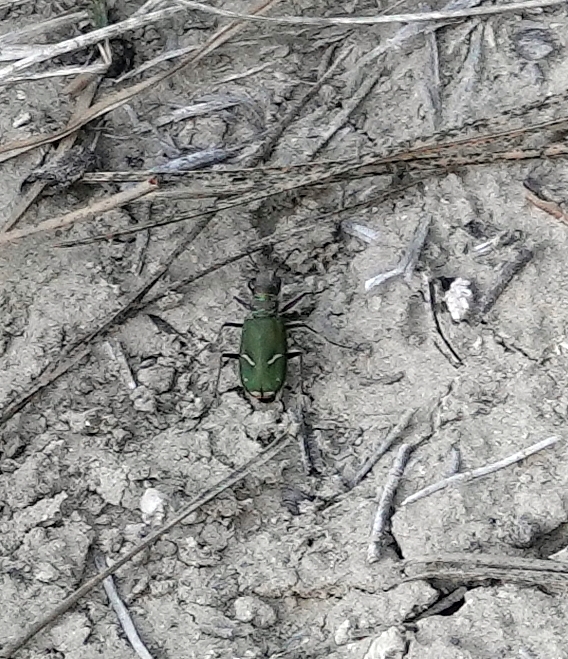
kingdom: Animalia
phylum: Arthropoda
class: Insecta
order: Coleoptera
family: Carabidae
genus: Cicindela
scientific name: Cicindela purpurea
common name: Cow path tiger beetle
